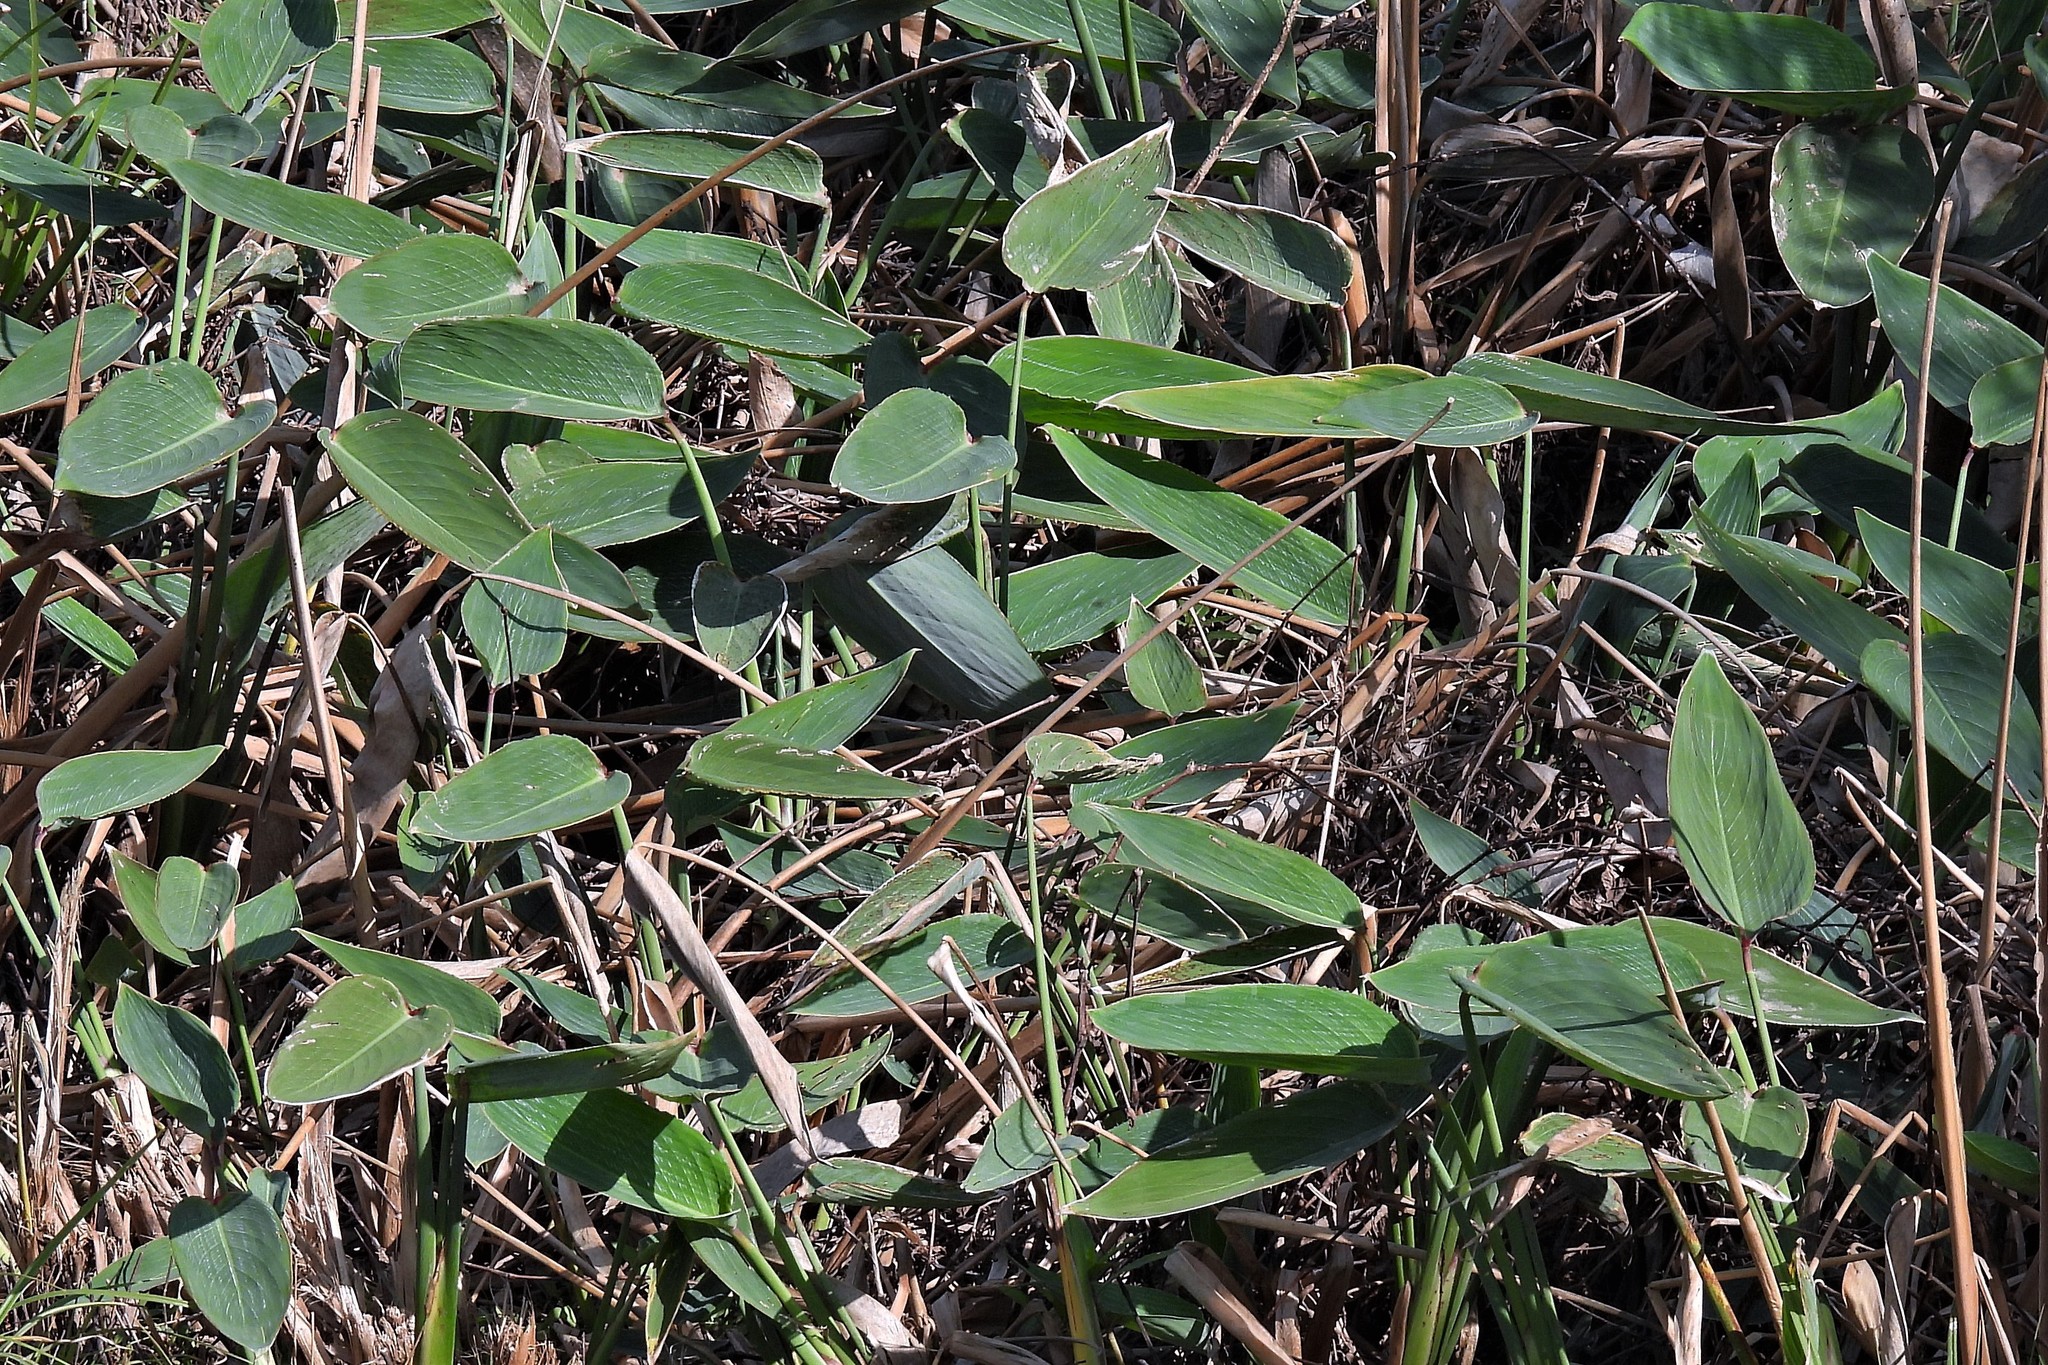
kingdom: Plantae
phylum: Tracheophyta
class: Liliopsida
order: Zingiberales
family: Marantaceae
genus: Thalia
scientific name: Thalia multiflora
